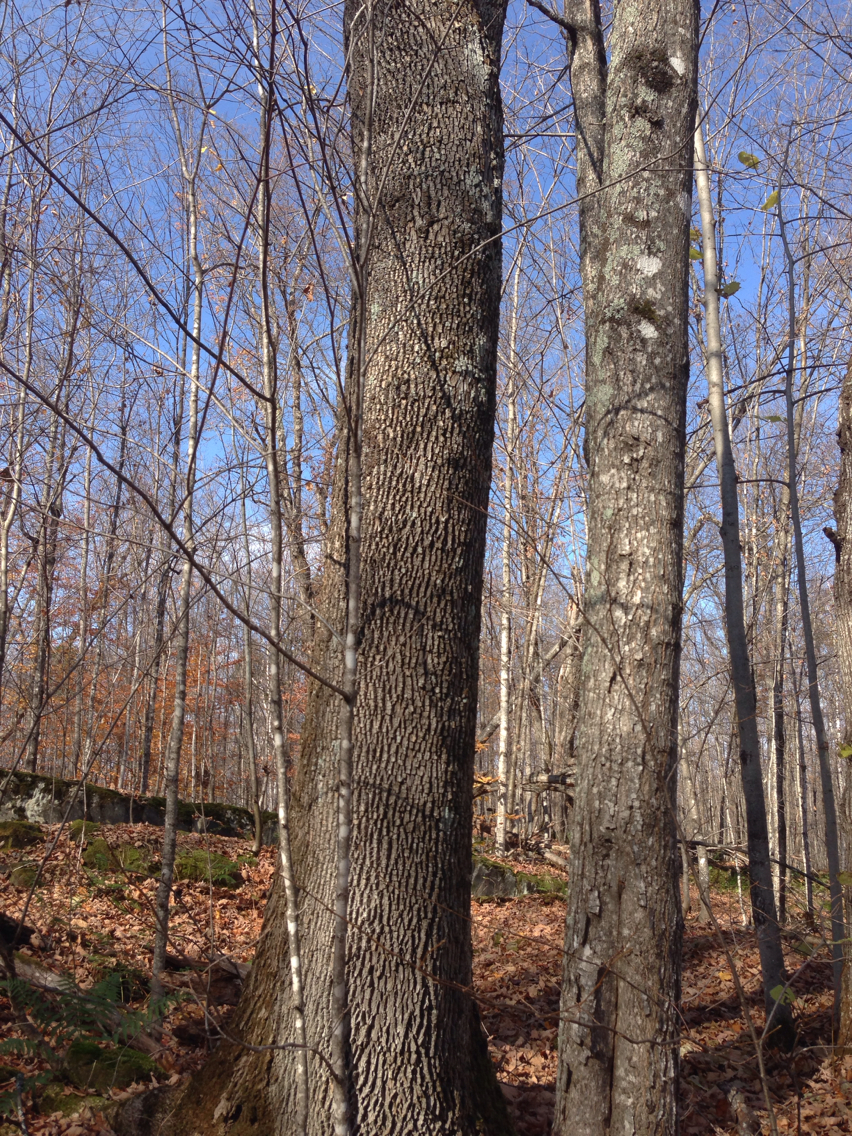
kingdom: Plantae
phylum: Tracheophyta
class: Magnoliopsida
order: Lamiales
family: Oleaceae
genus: Fraxinus
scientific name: Fraxinus americana
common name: White ash
